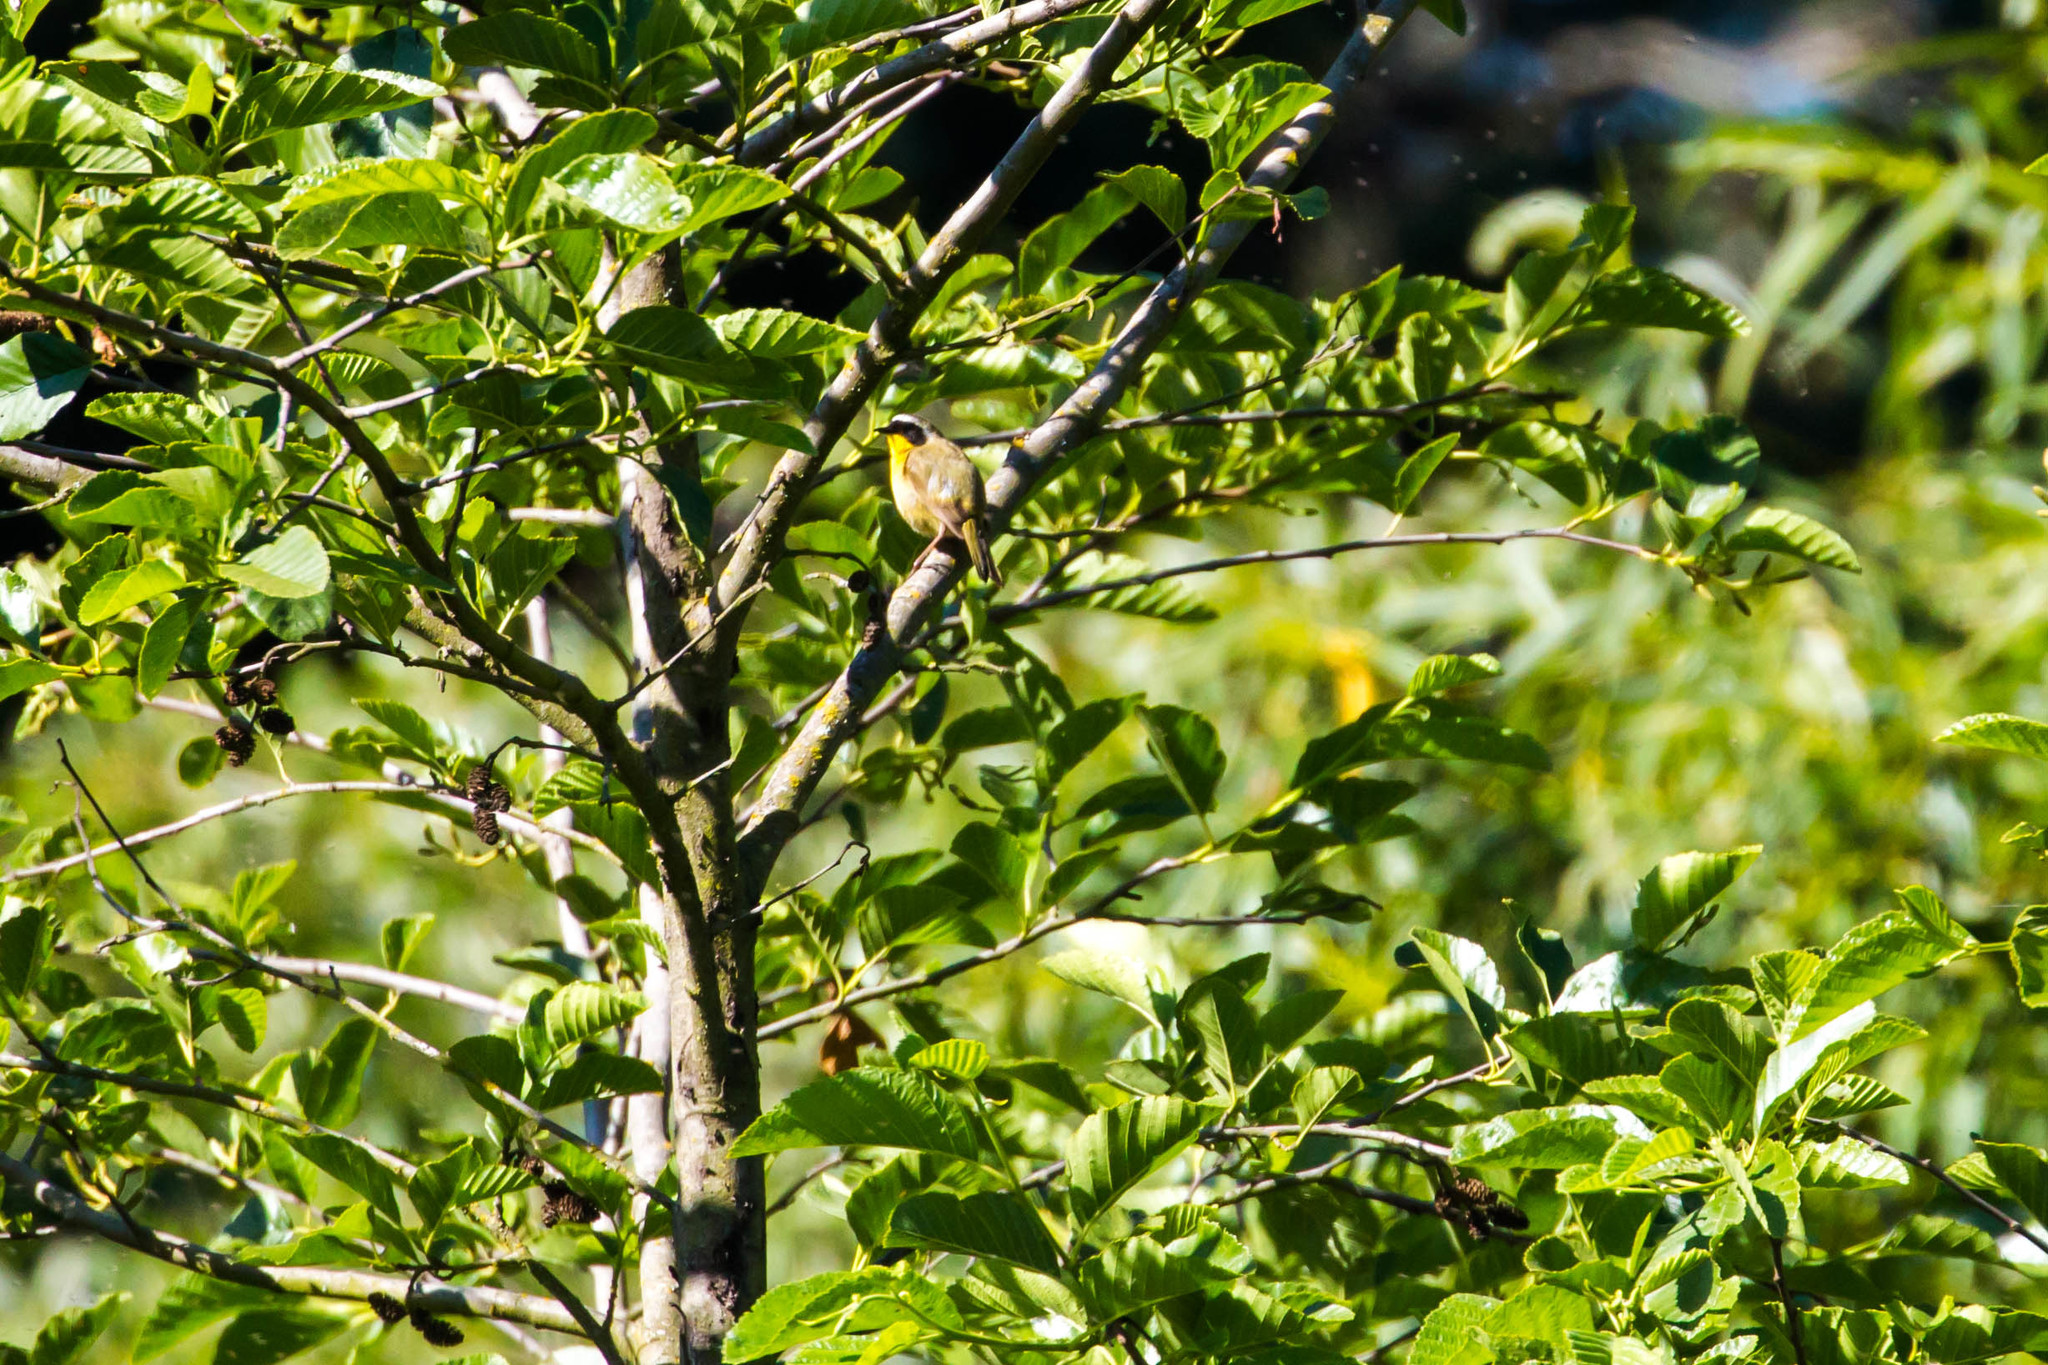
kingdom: Animalia
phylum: Chordata
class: Aves
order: Passeriformes
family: Parulidae
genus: Geothlypis
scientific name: Geothlypis trichas
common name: Common yellowthroat
